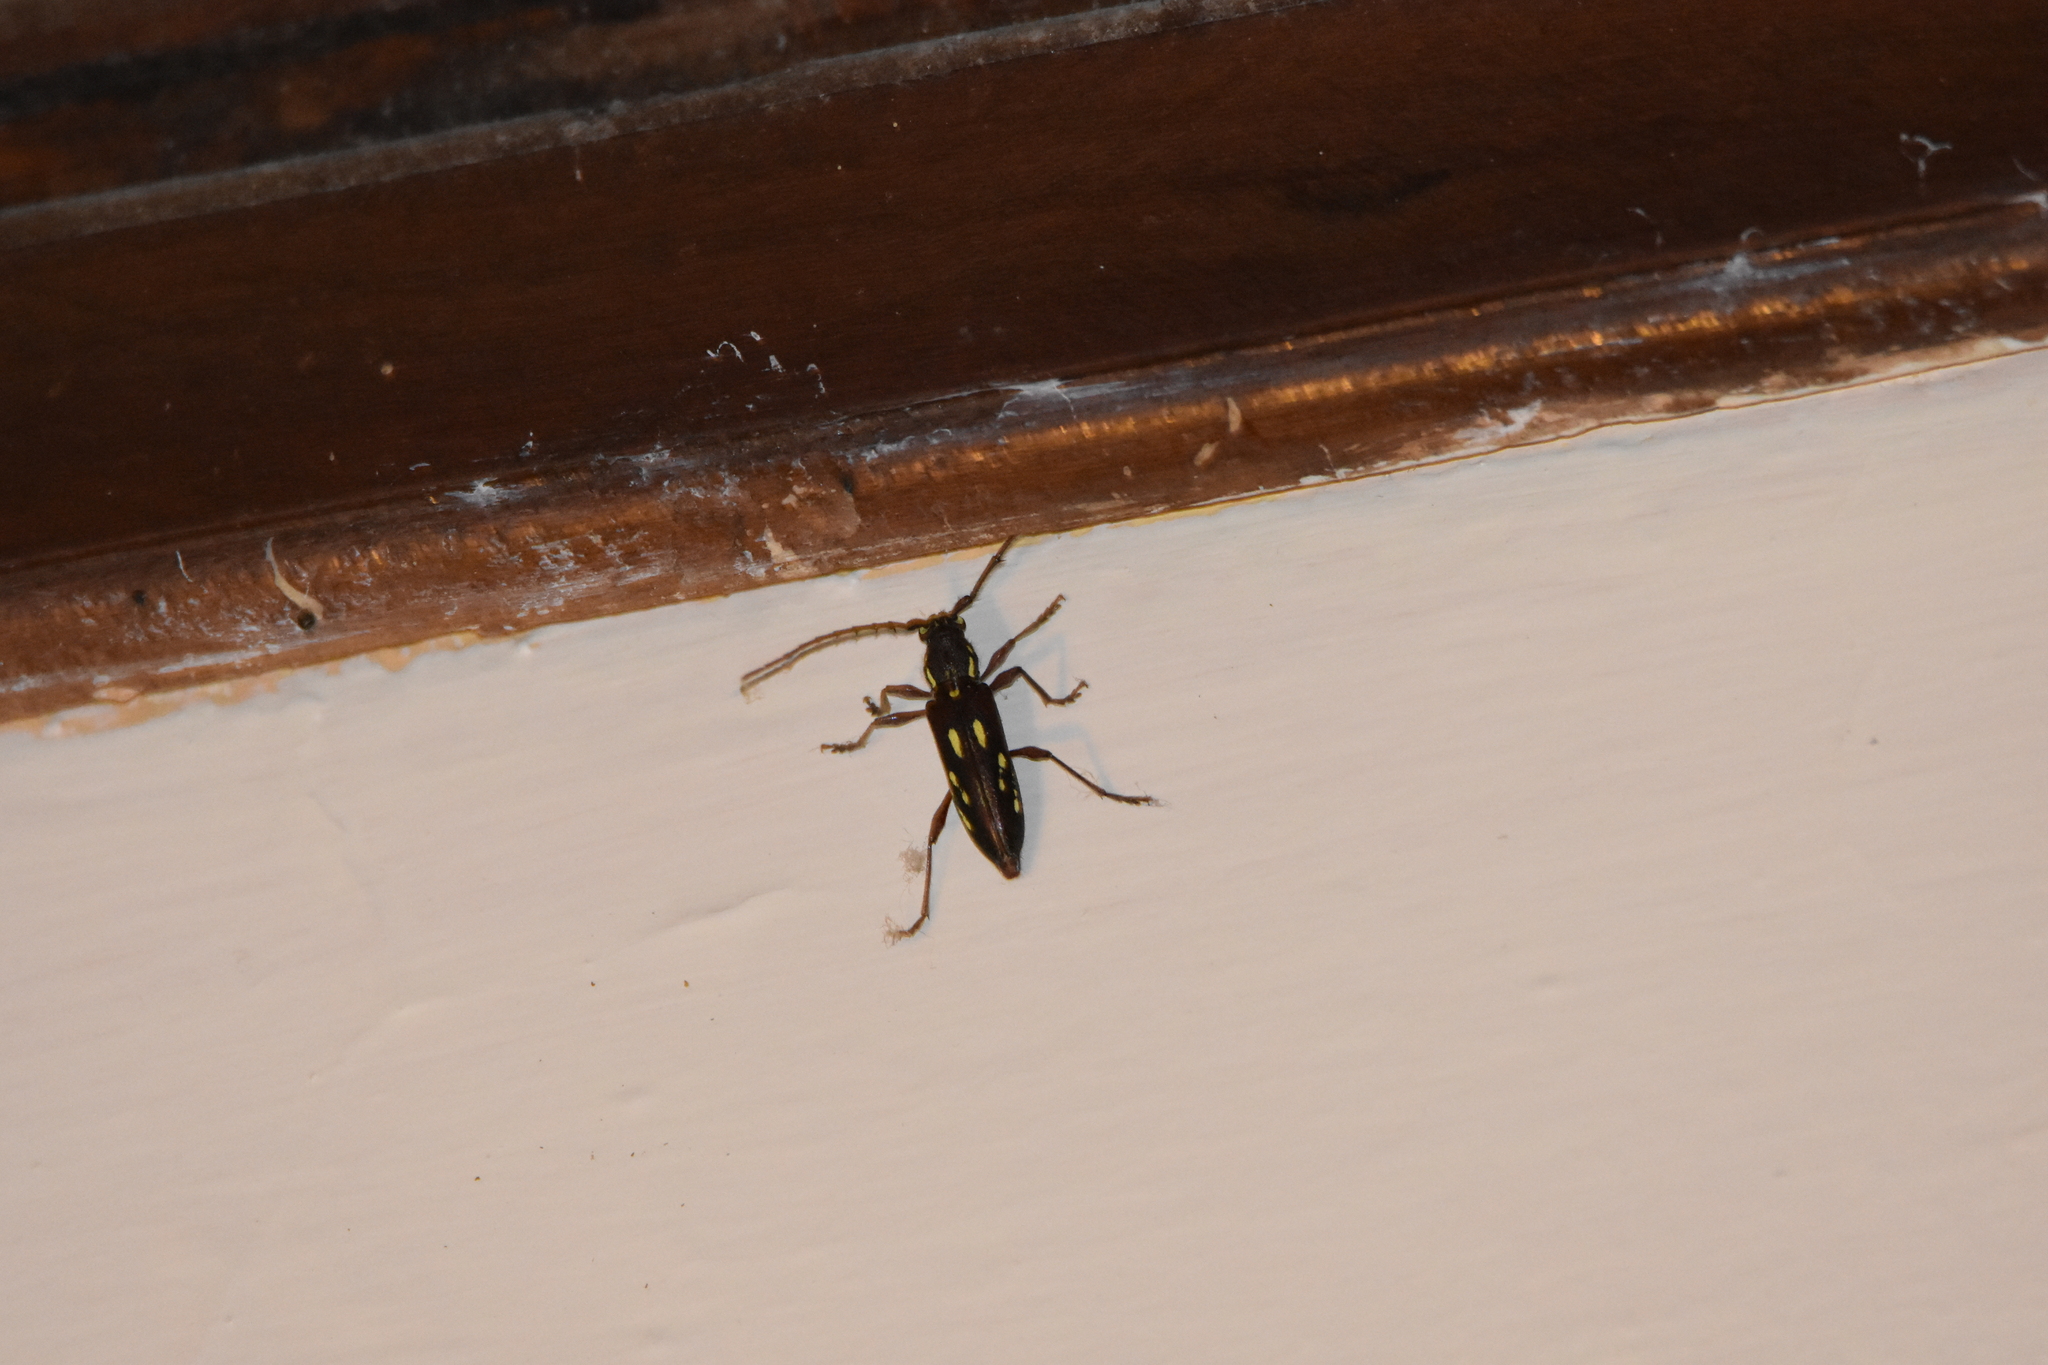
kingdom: Animalia
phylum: Arthropoda
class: Insecta
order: Coleoptera
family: Cerambycidae
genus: Ambonus
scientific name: Ambonus distinctus
